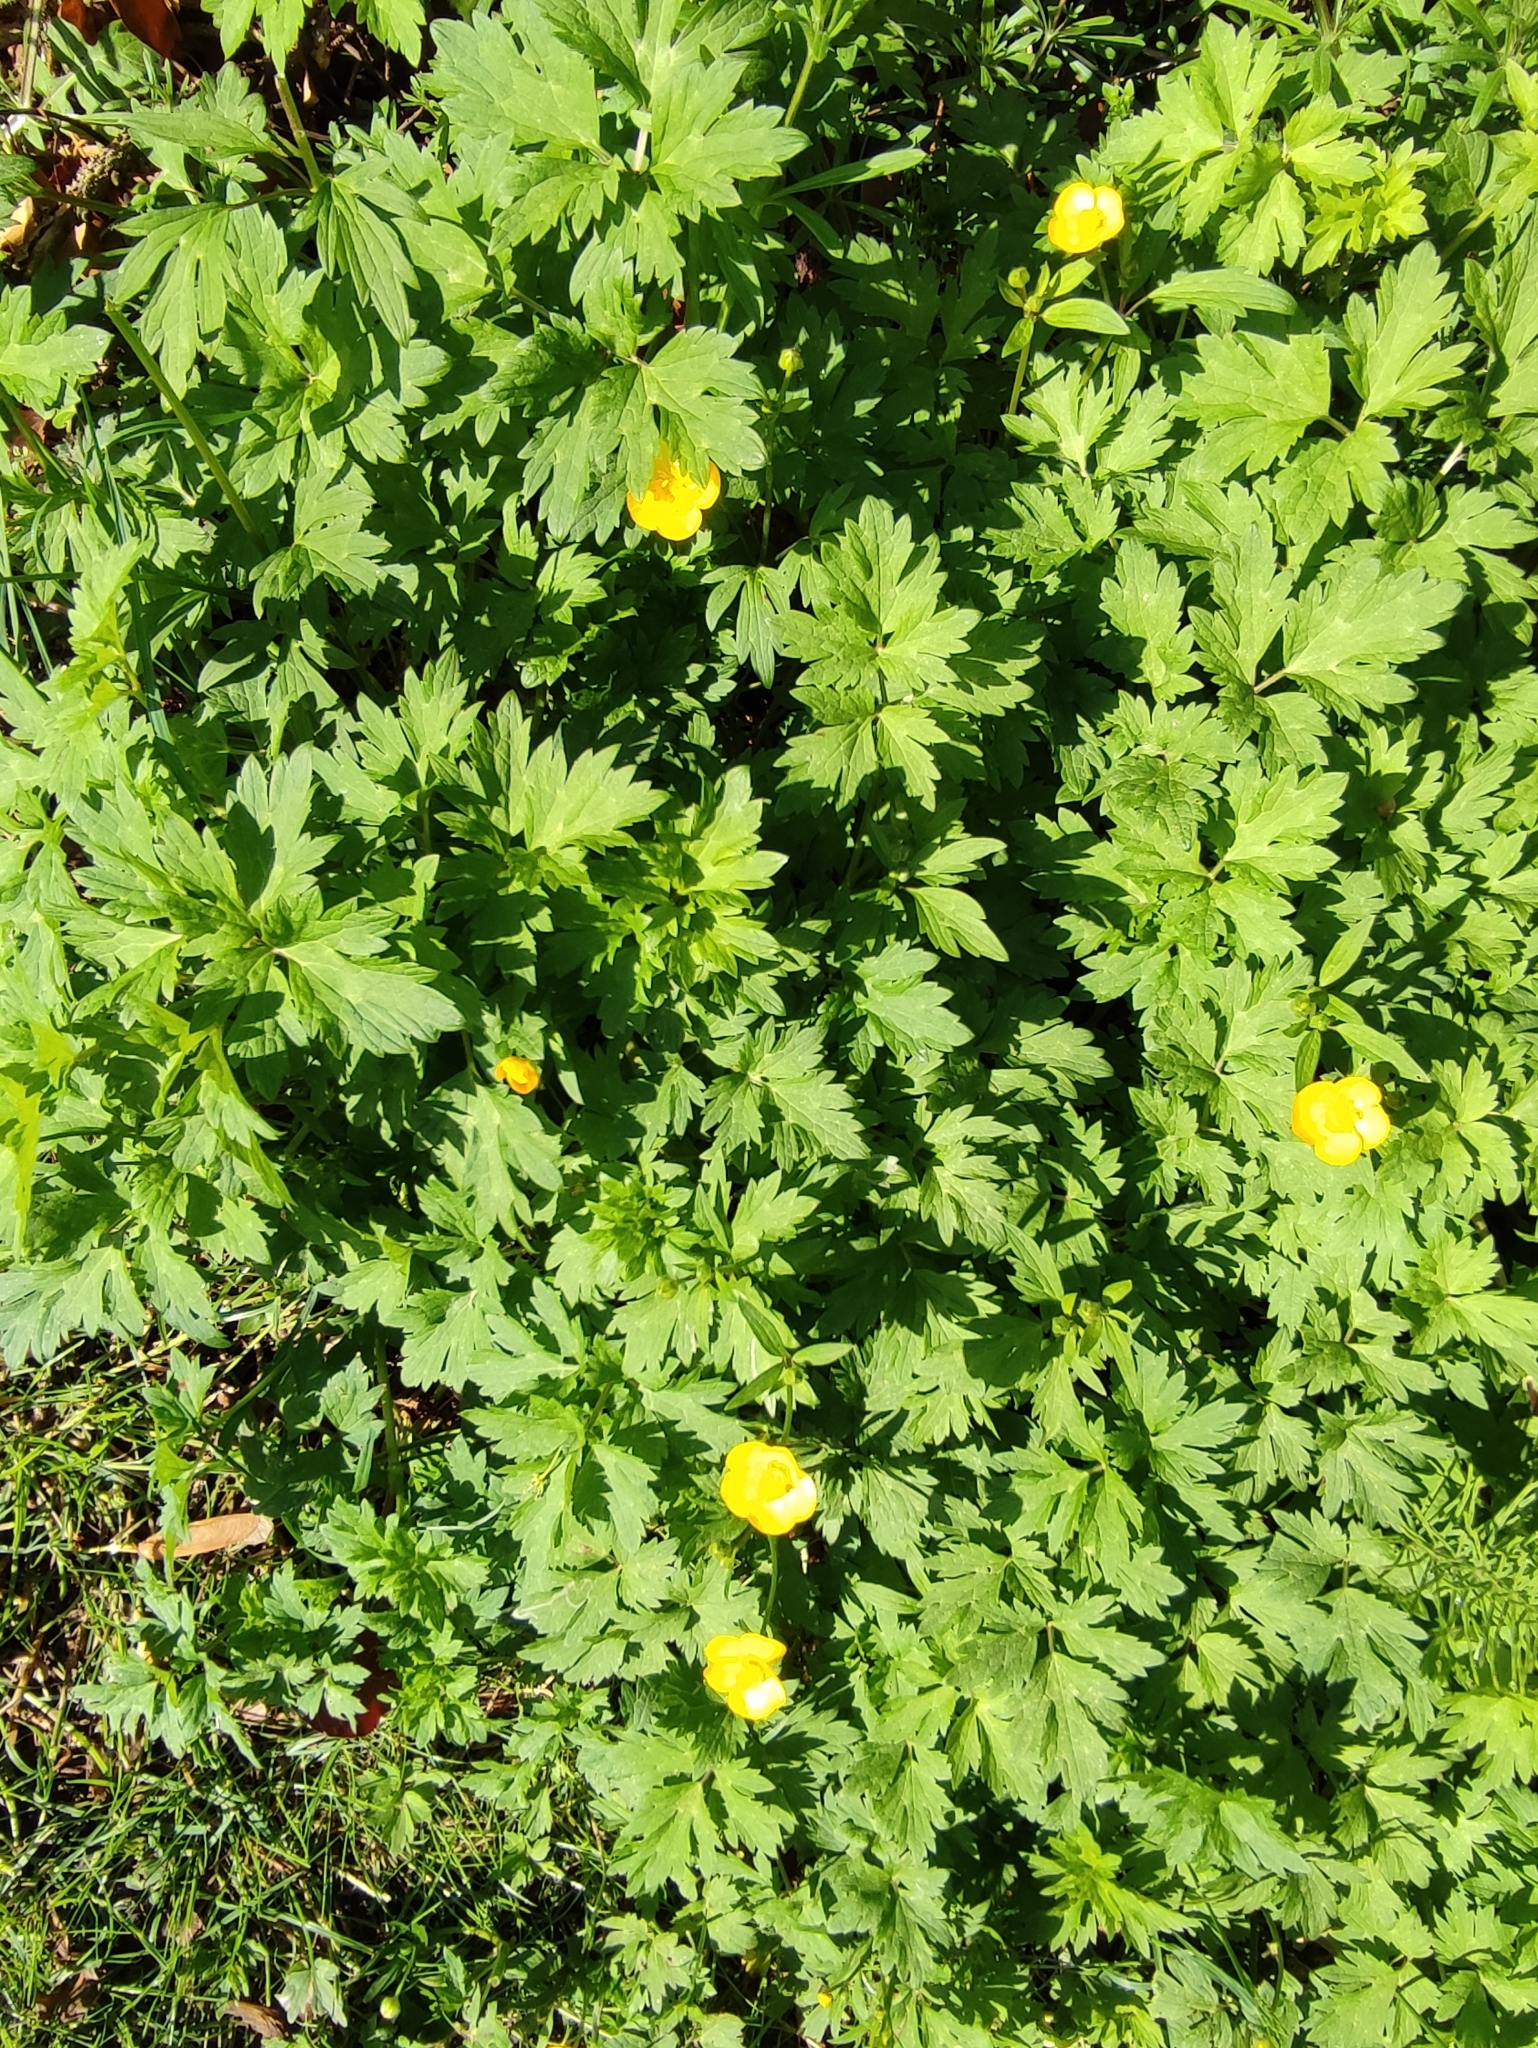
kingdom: Plantae
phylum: Tracheophyta
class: Magnoliopsida
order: Ranunculales
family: Ranunculaceae
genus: Ranunculus
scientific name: Ranunculus repens
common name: Creeping buttercup
